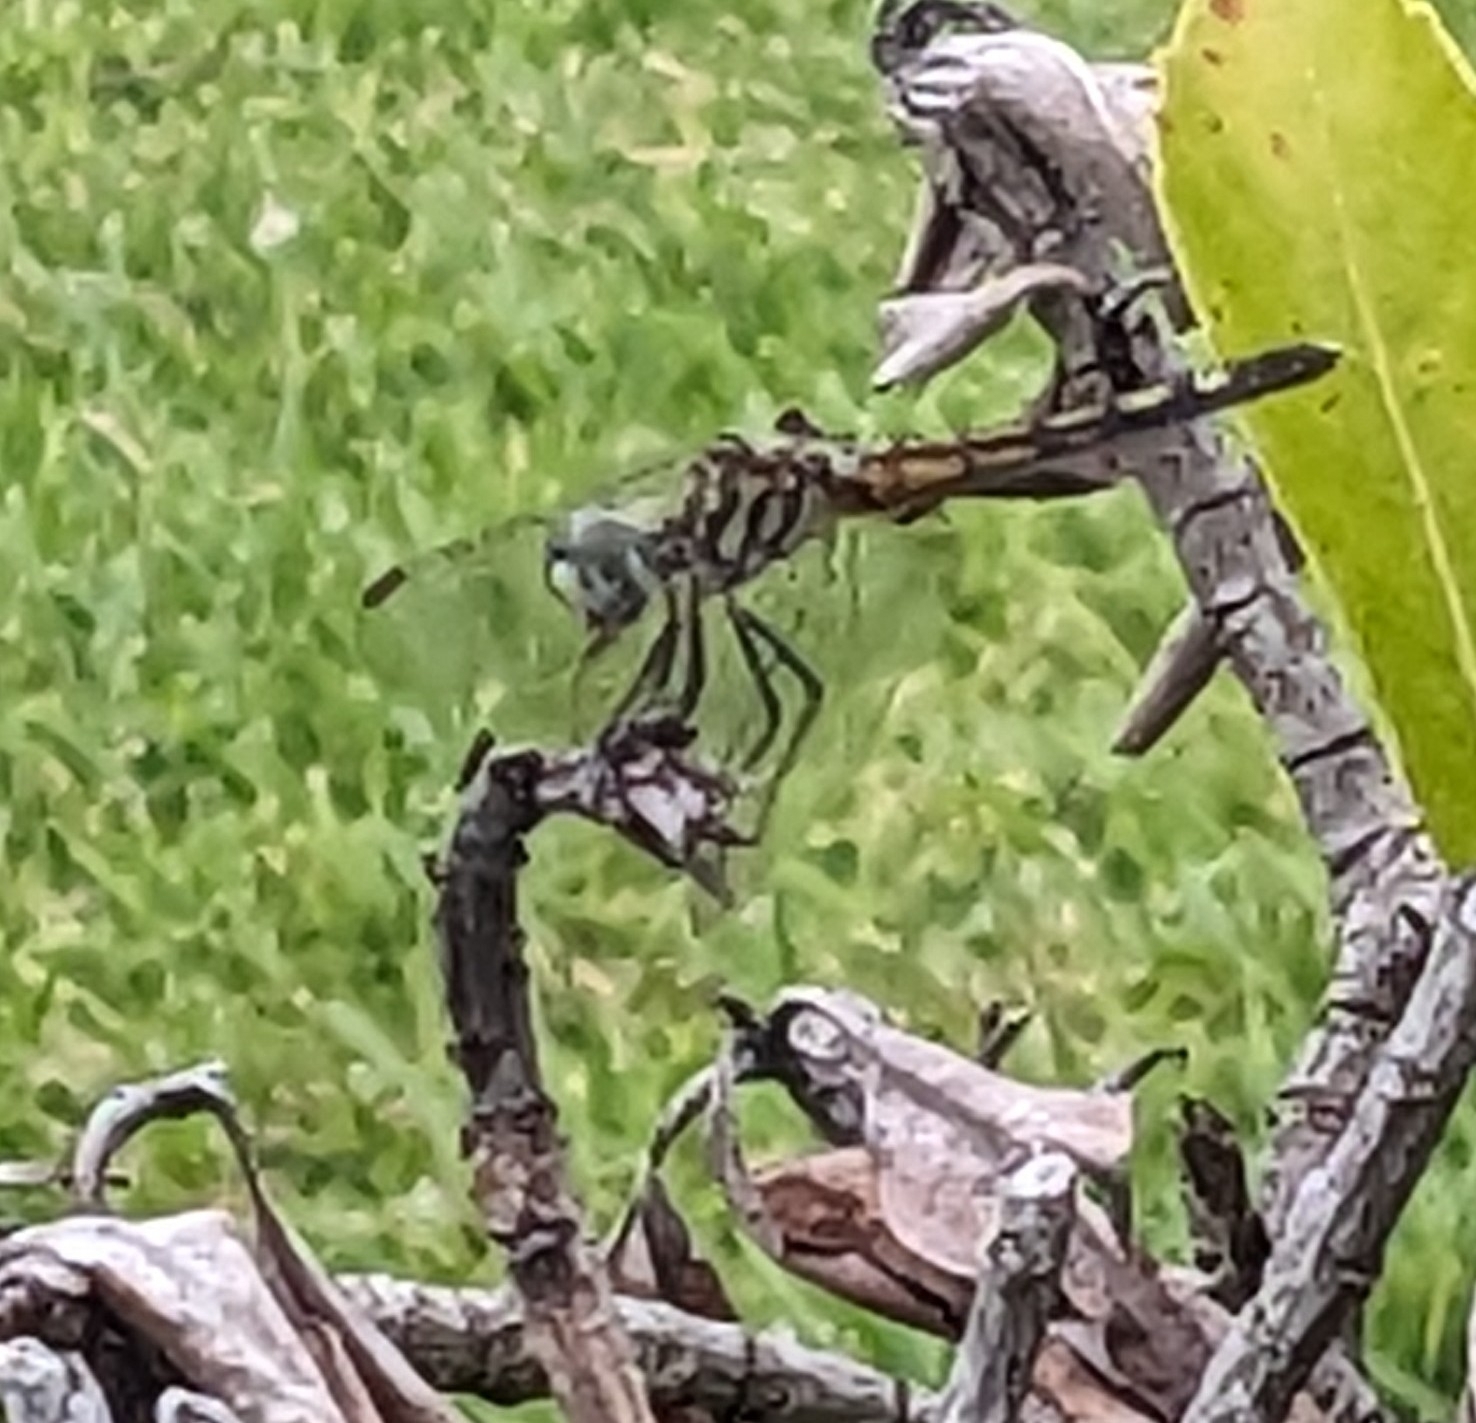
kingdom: Animalia
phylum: Arthropoda
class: Insecta
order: Odonata
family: Libellulidae
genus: Pachydiplax
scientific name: Pachydiplax longipennis
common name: Blue dasher
